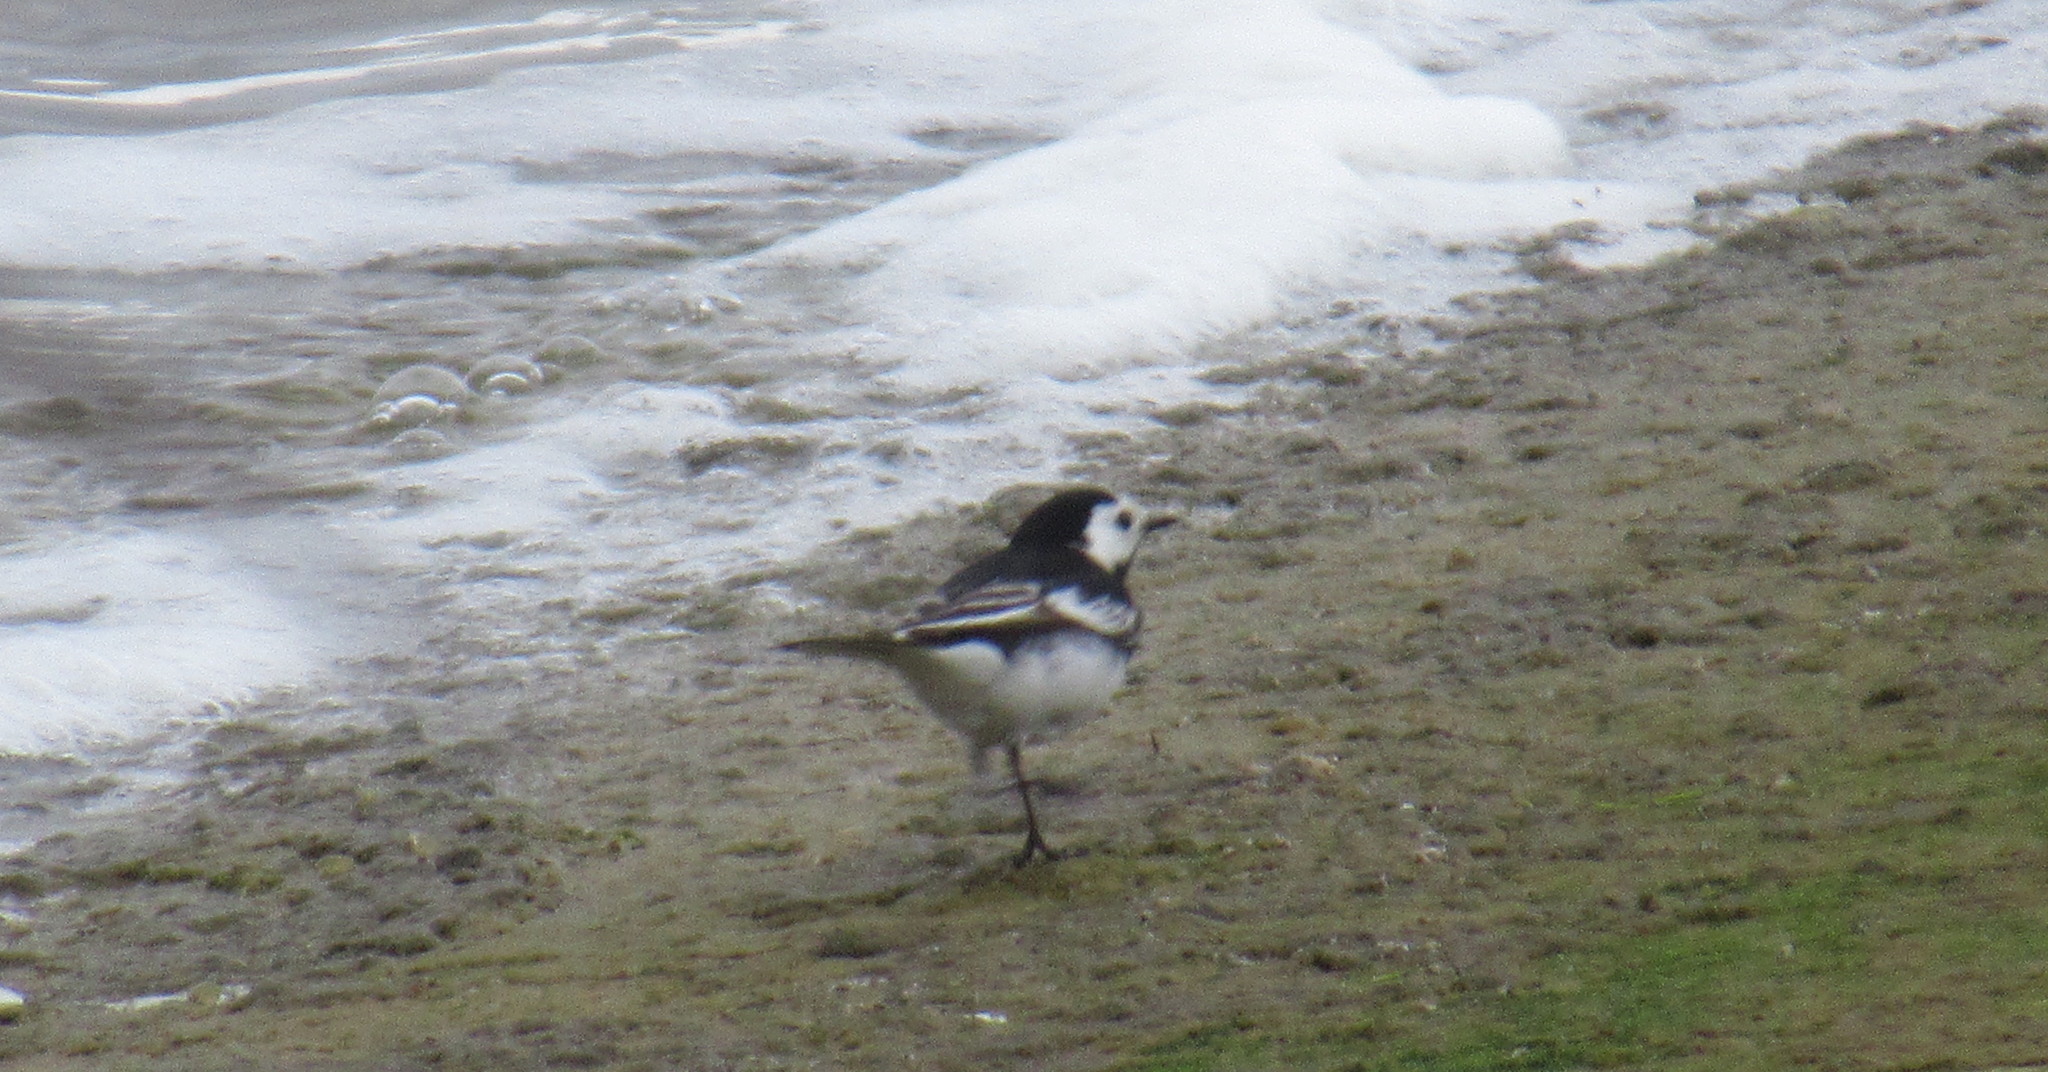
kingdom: Animalia
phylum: Chordata
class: Aves
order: Passeriformes
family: Motacillidae
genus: Motacilla
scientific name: Motacilla alba
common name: White wagtail
